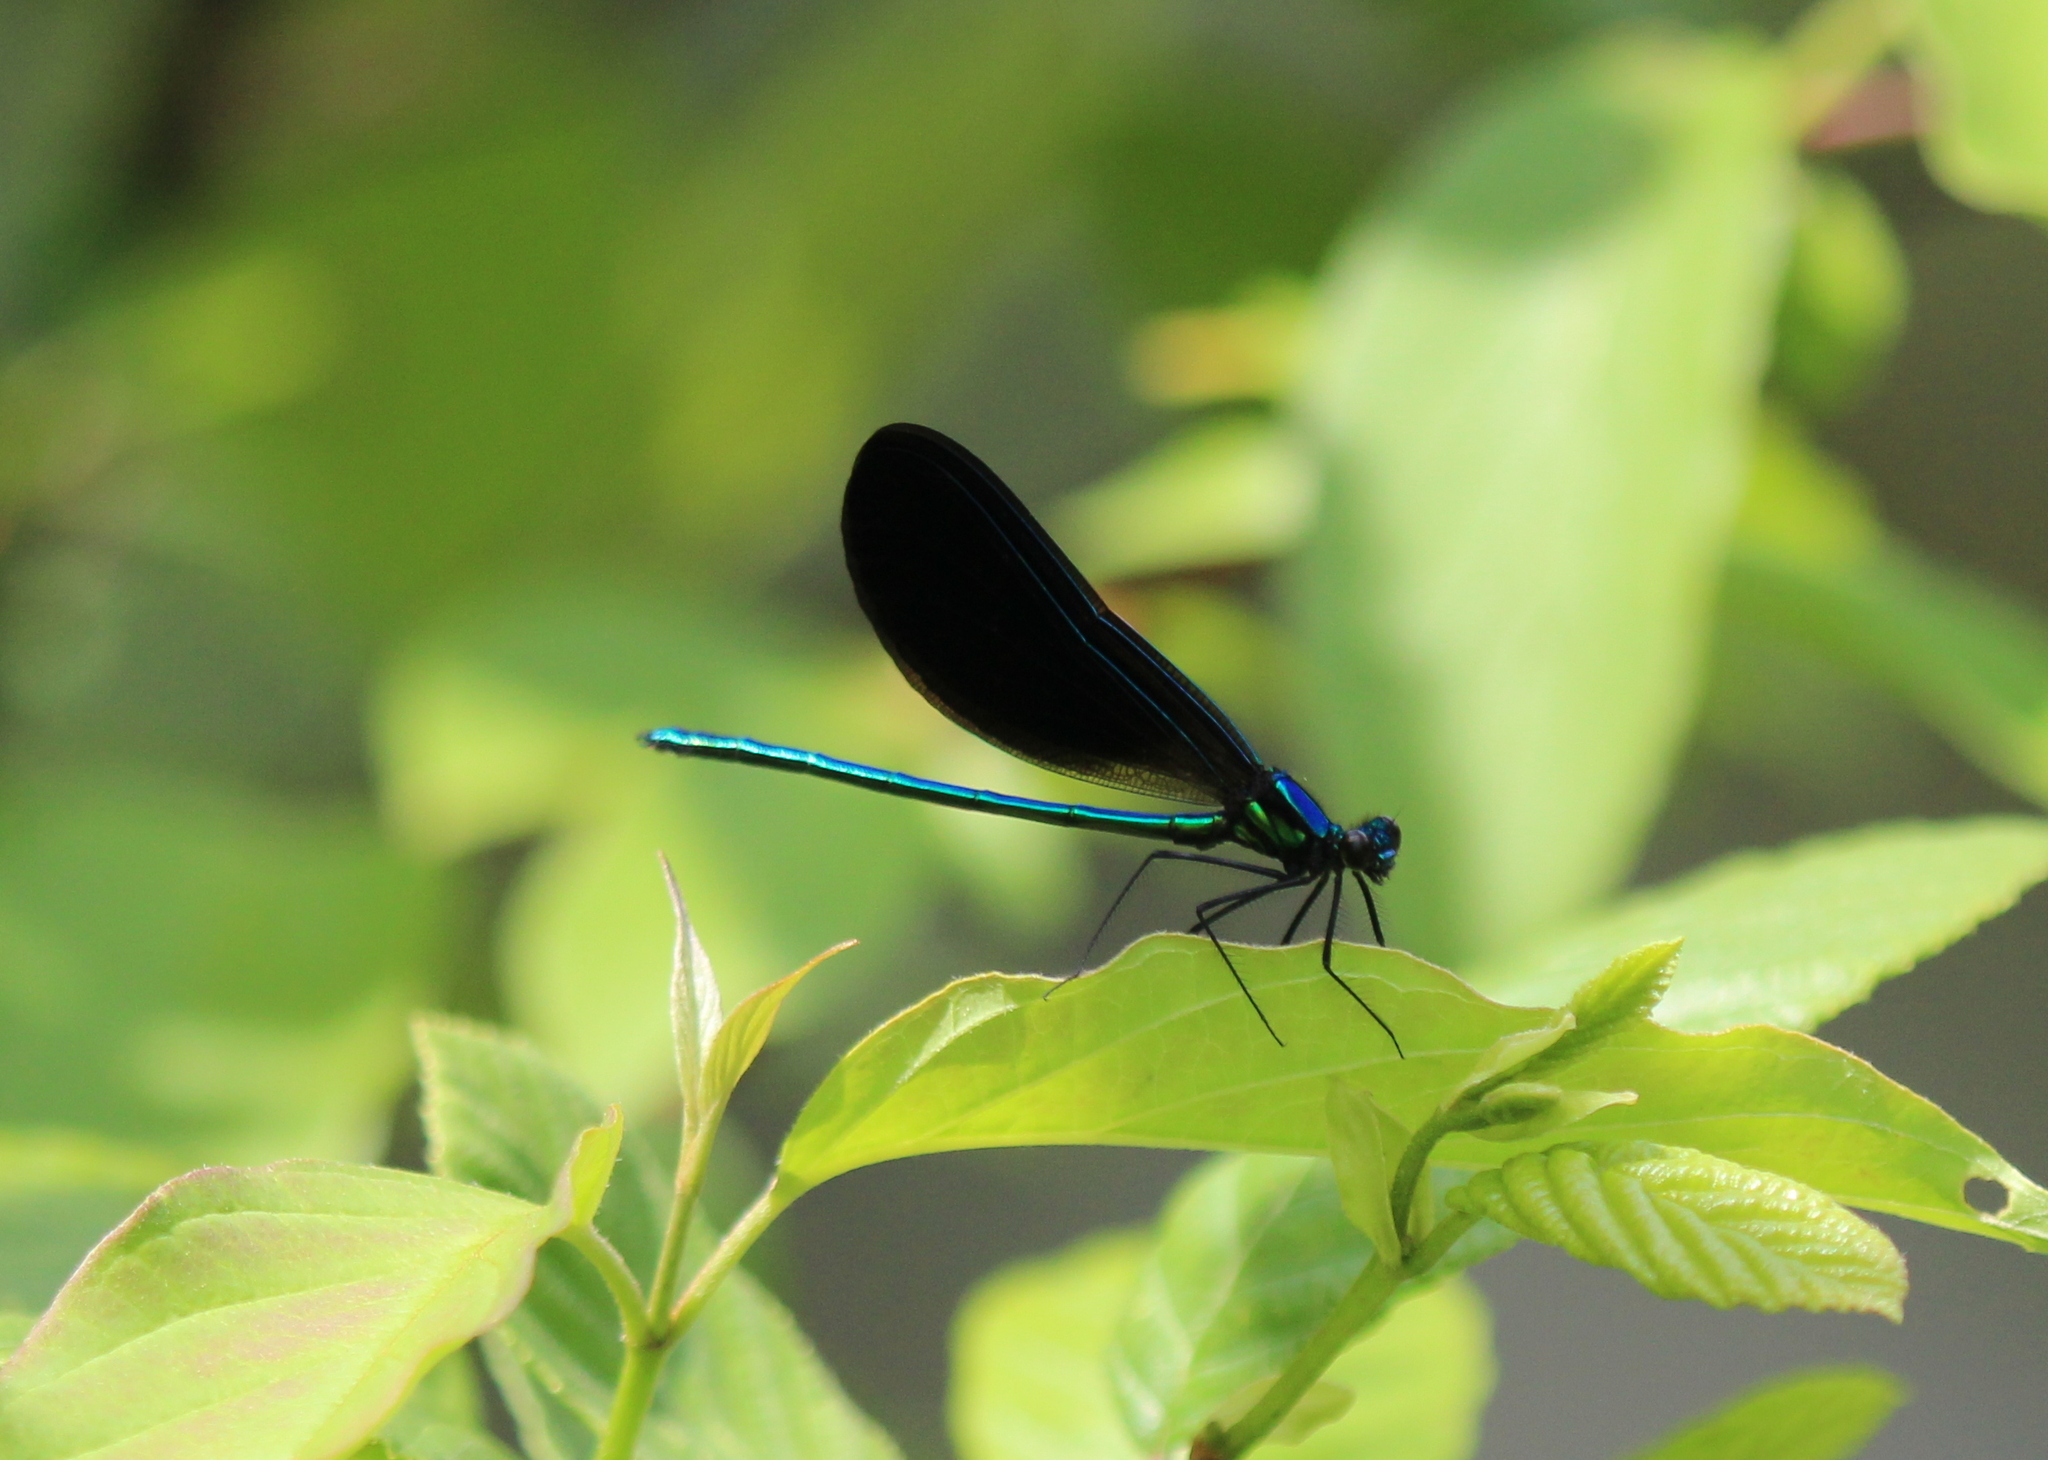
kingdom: Animalia
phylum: Arthropoda
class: Insecta
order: Odonata
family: Calopterygidae
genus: Calopteryx
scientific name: Calopteryx maculata
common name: Ebony jewelwing
